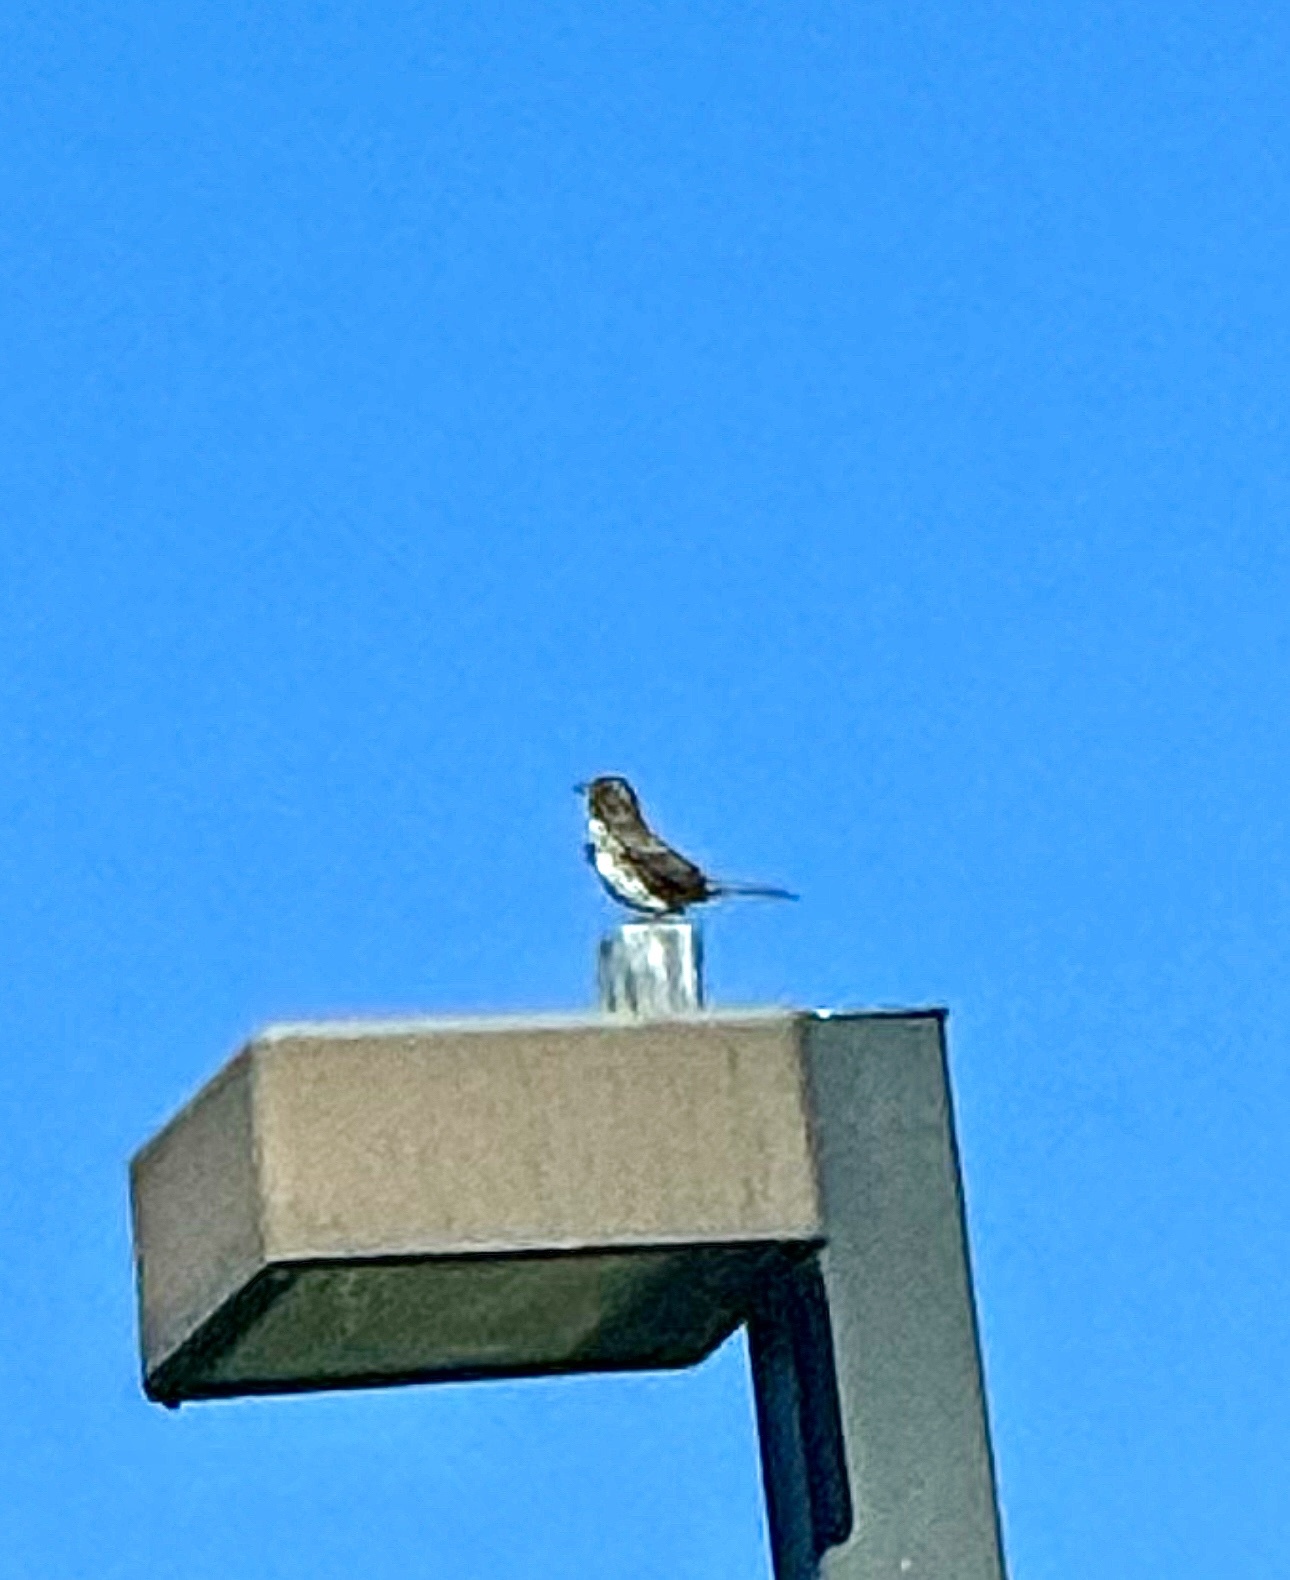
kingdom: Animalia
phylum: Chordata
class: Aves
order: Passeriformes
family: Passerellidae
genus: Melospiza
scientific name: Melospiza melodia
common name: Song sparrow
